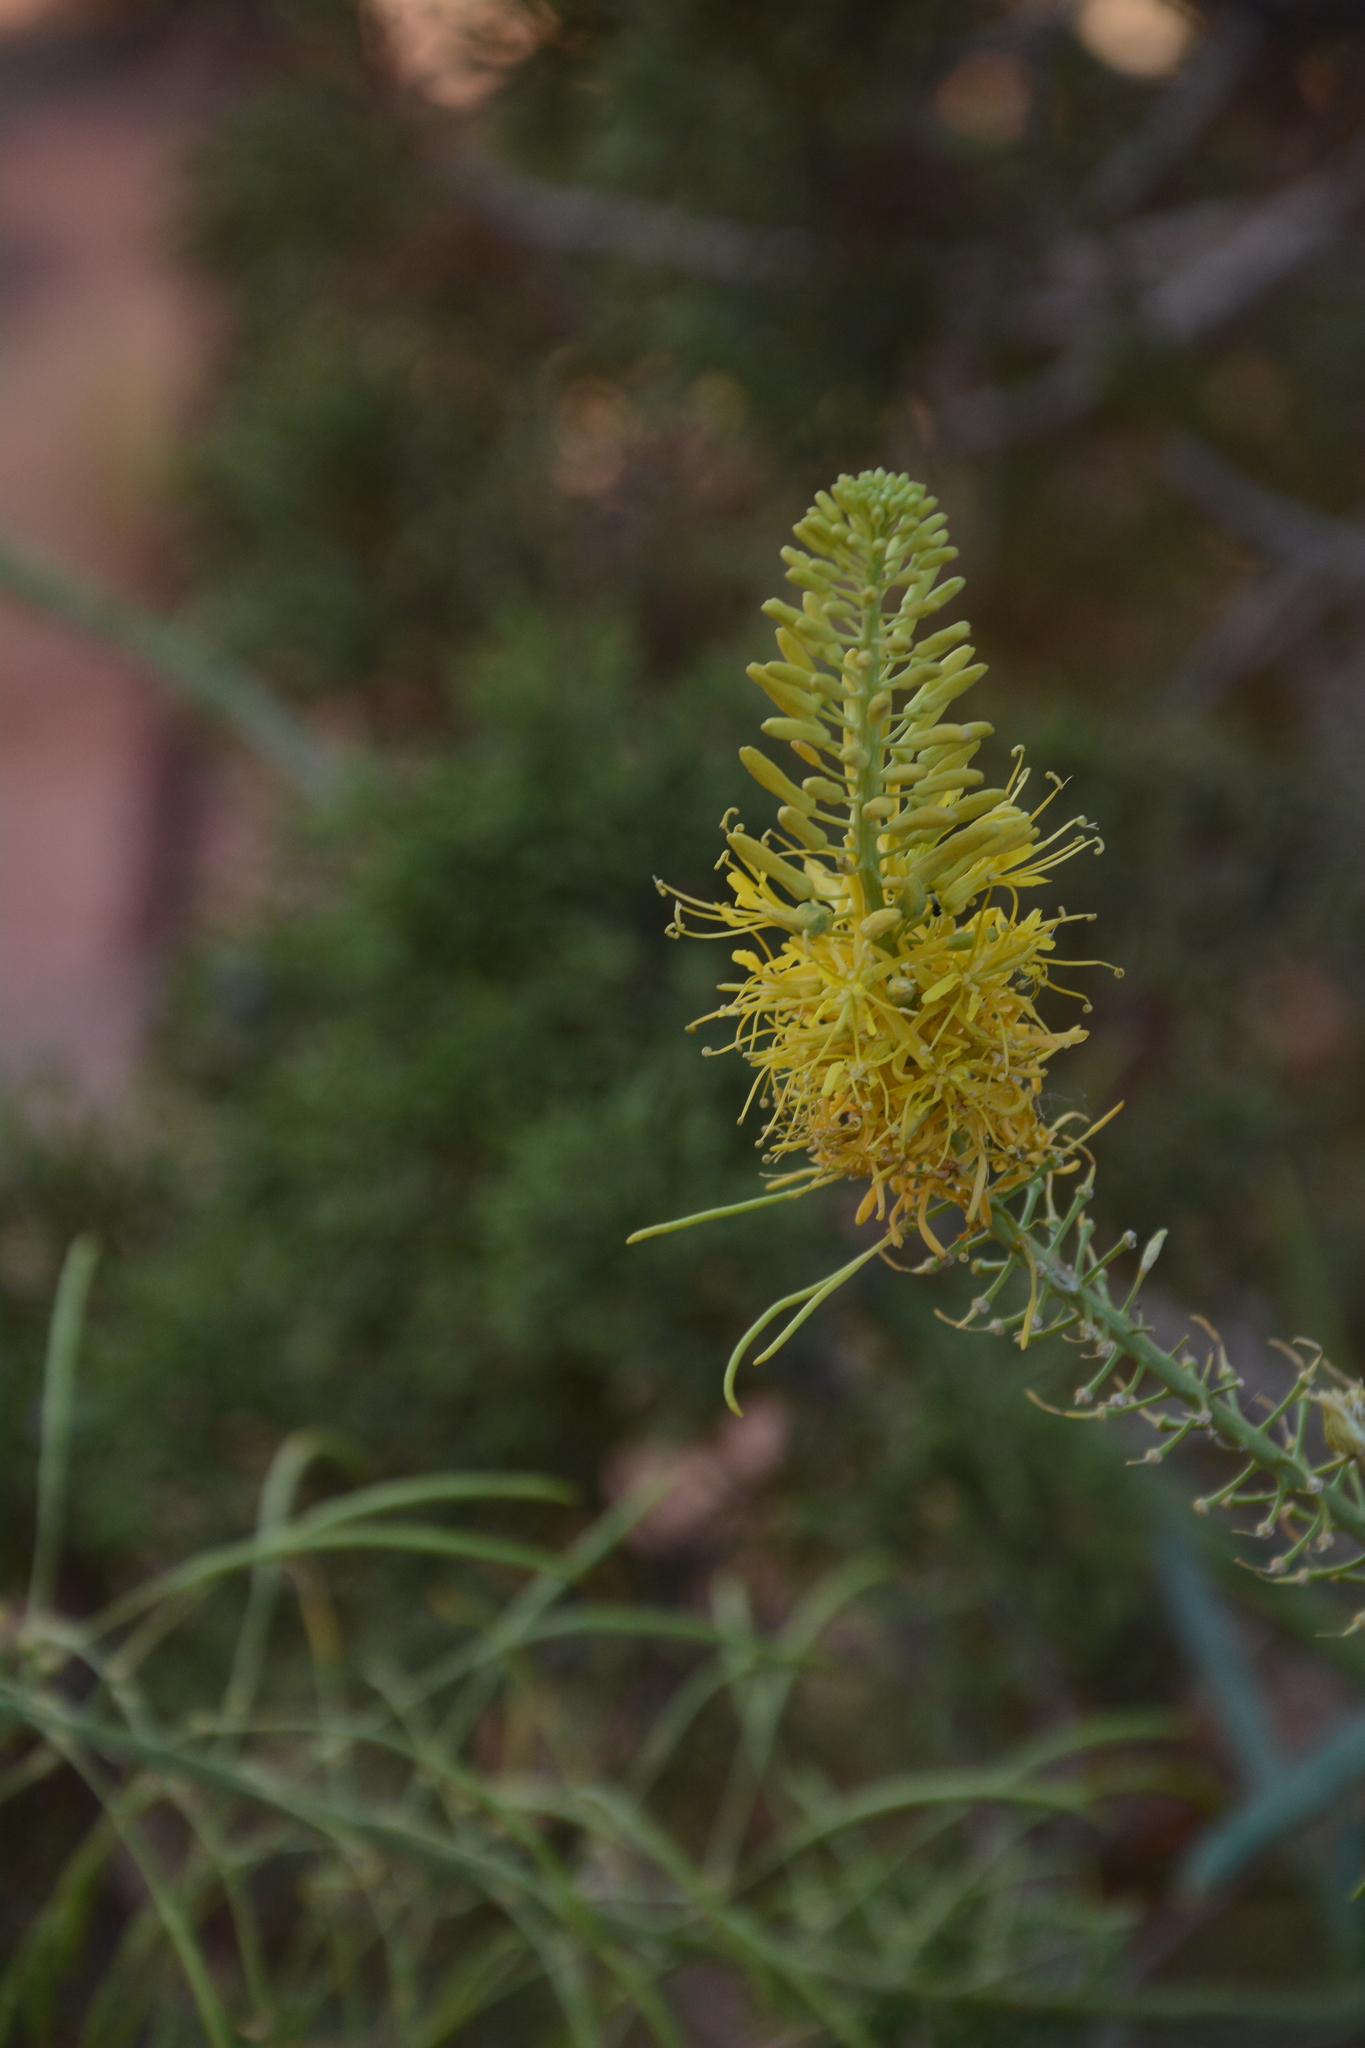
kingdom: Plantae
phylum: Tracheophyta
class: Magnoliopsida
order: Brassicales
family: Brassicaceae
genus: Stanleya
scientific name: Stanleya pinnata
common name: Prince's-plume
